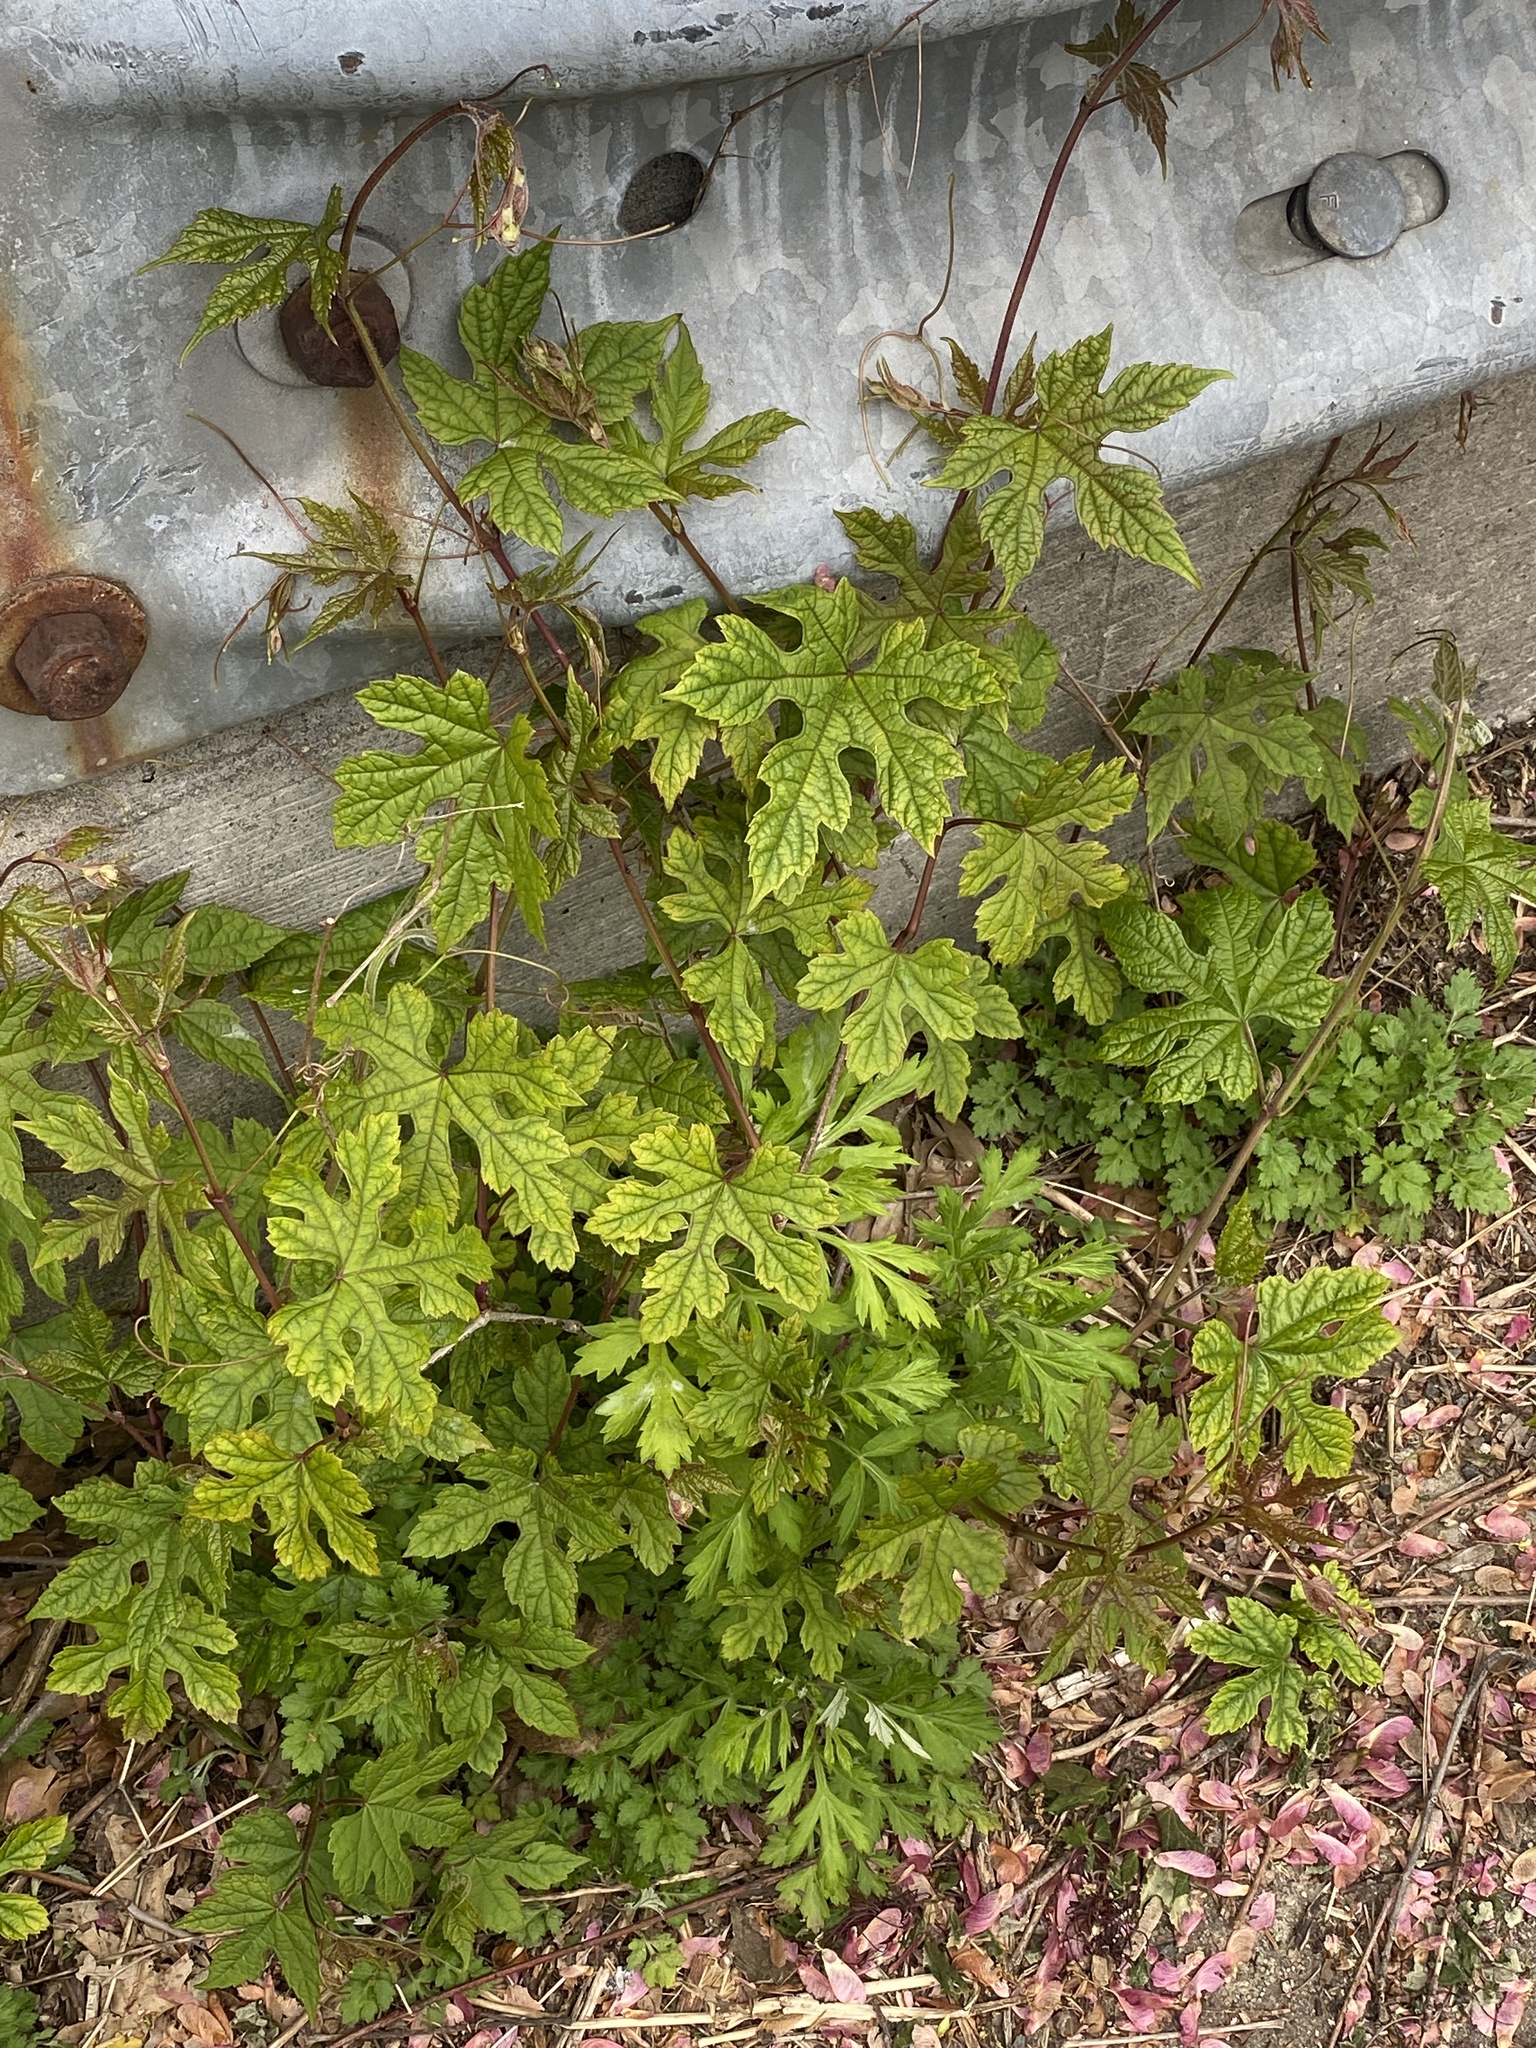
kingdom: Plantae
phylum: Tracheophyta
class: Magnoliopsida
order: Vitales
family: Vitaceae
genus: Ampelopsis
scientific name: Ampelopsis glandulosa
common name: Amur peppervine
